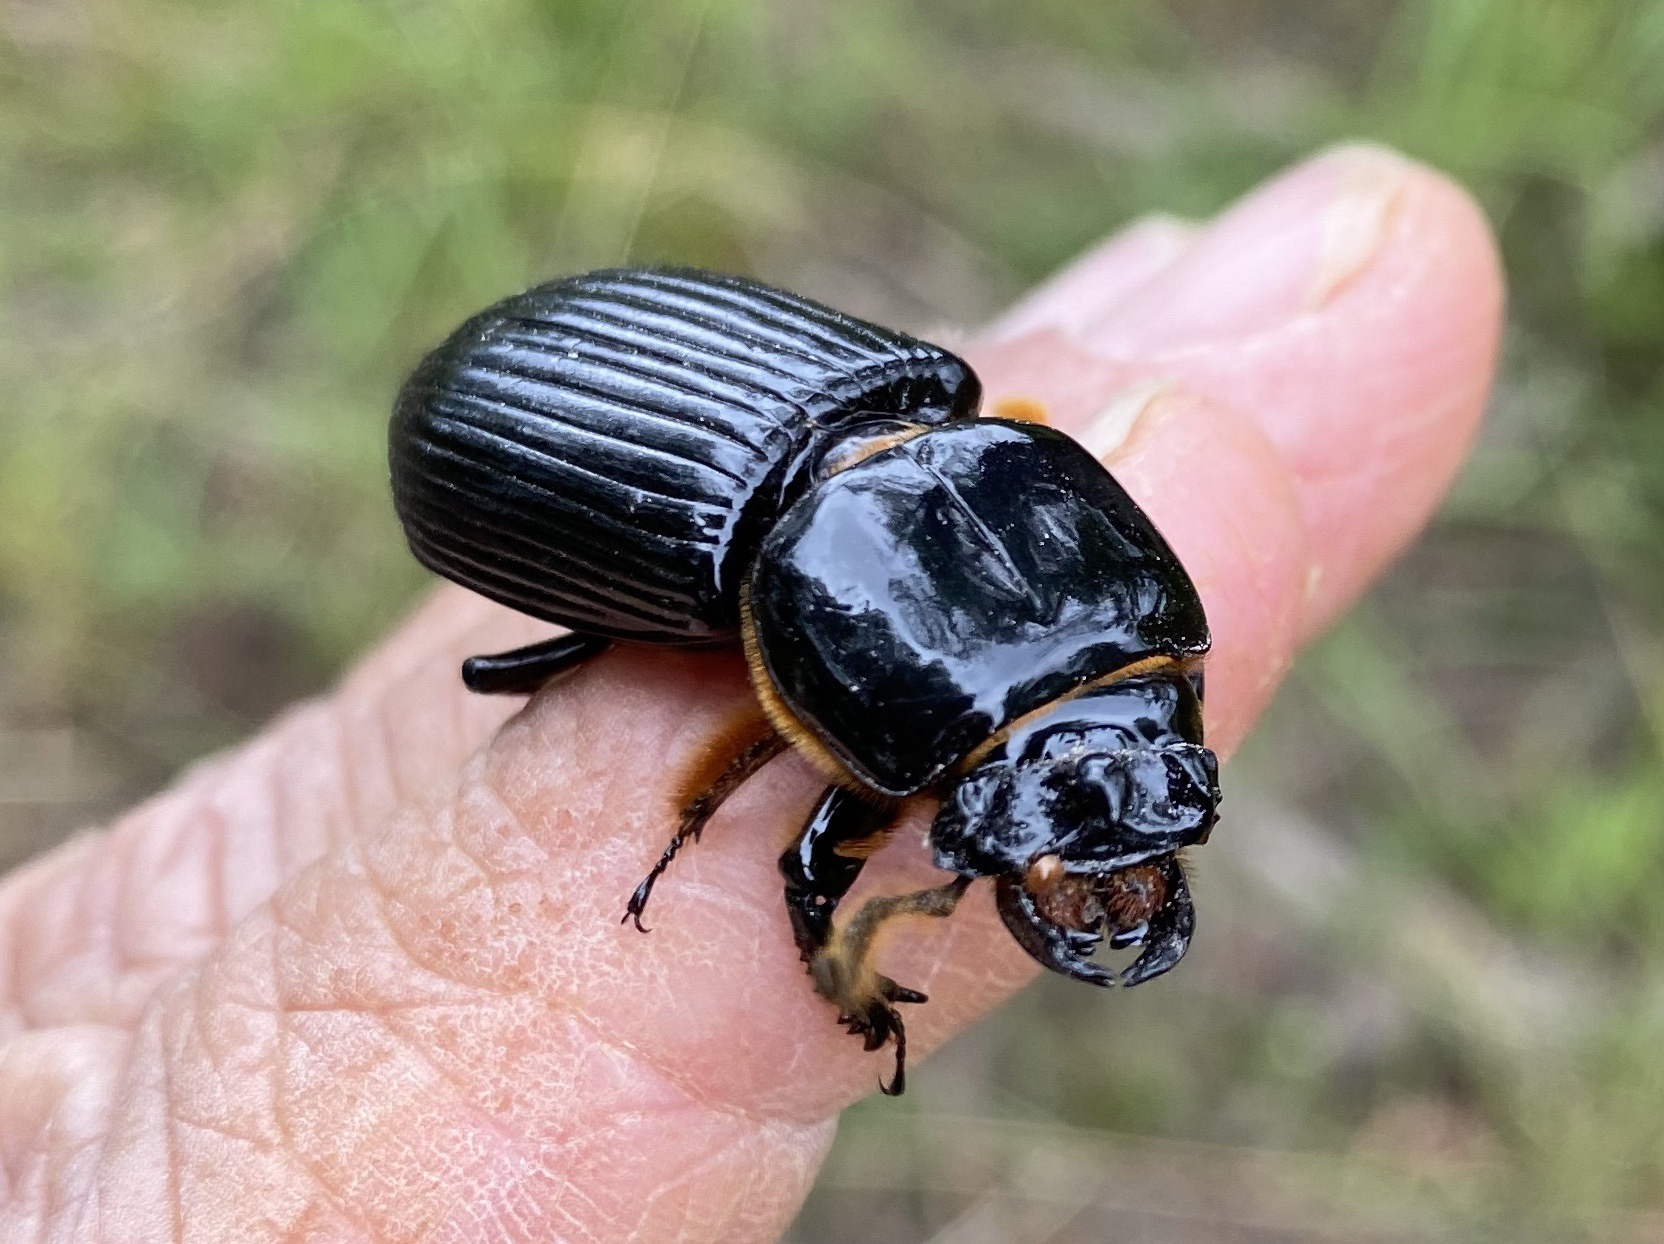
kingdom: Animalia
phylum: Arthropoda
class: Insecta
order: Coleoptera
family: Passalidae
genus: Odontotaenius
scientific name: Odontotaenius disjunctus
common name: Patent leather beetle
